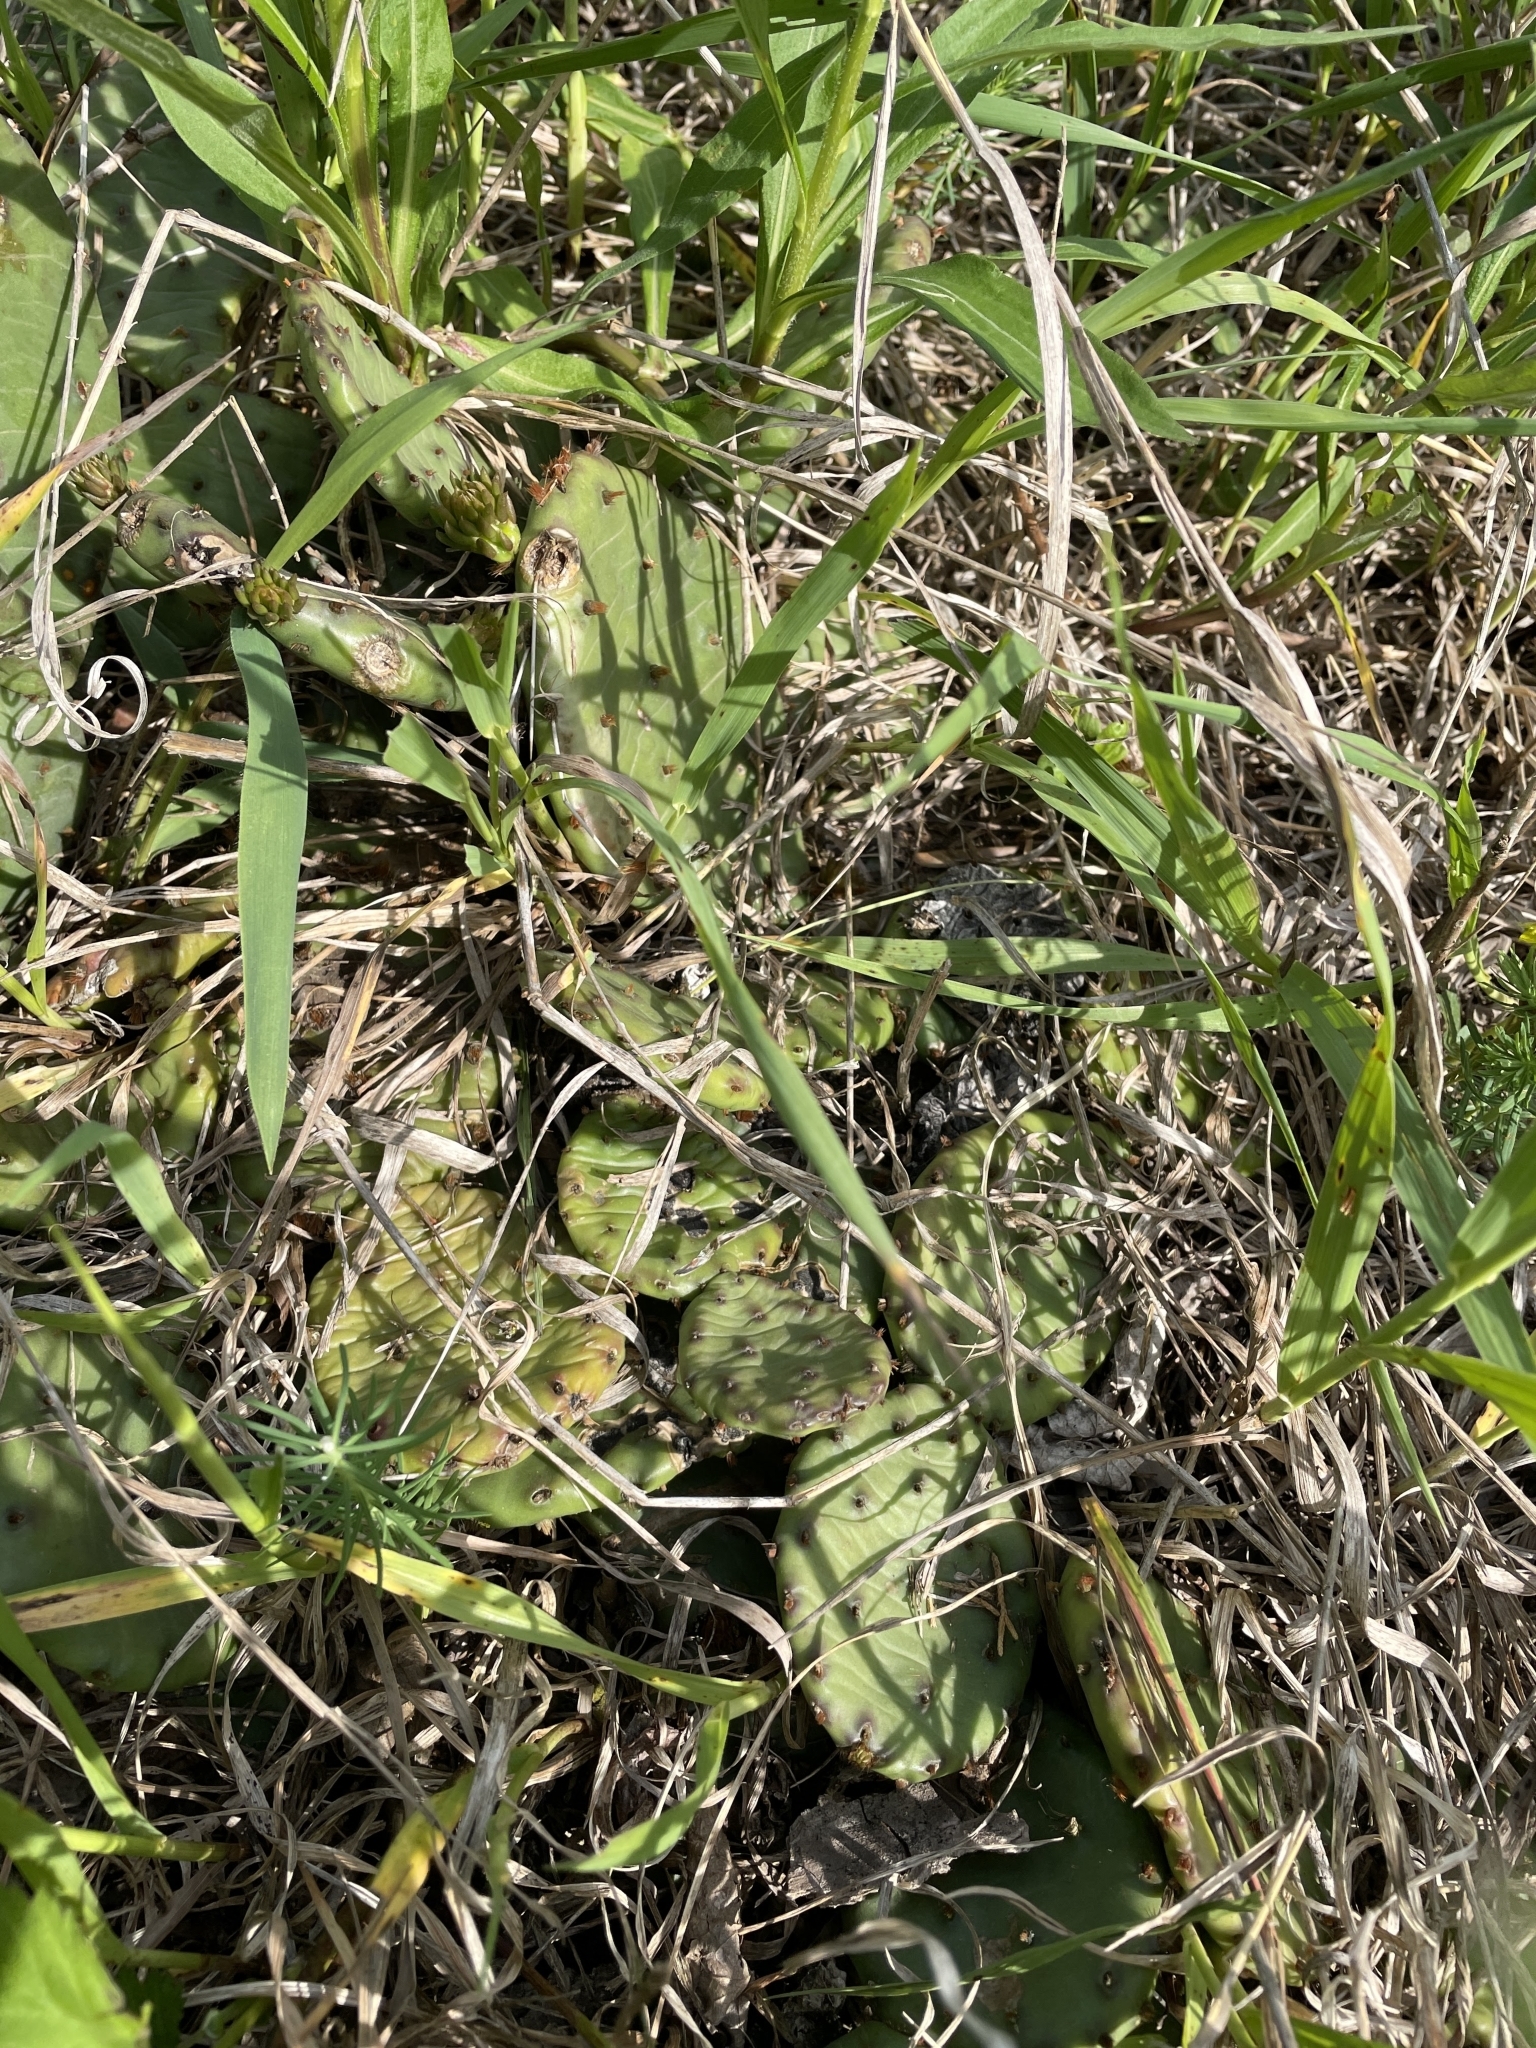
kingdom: Plantae
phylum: Tracheophyta
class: Magnoliopsida
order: Caryophyllales
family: Cactaceae
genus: Opuntia
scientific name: Opuntia humifusa
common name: Eastern prickly-pear
